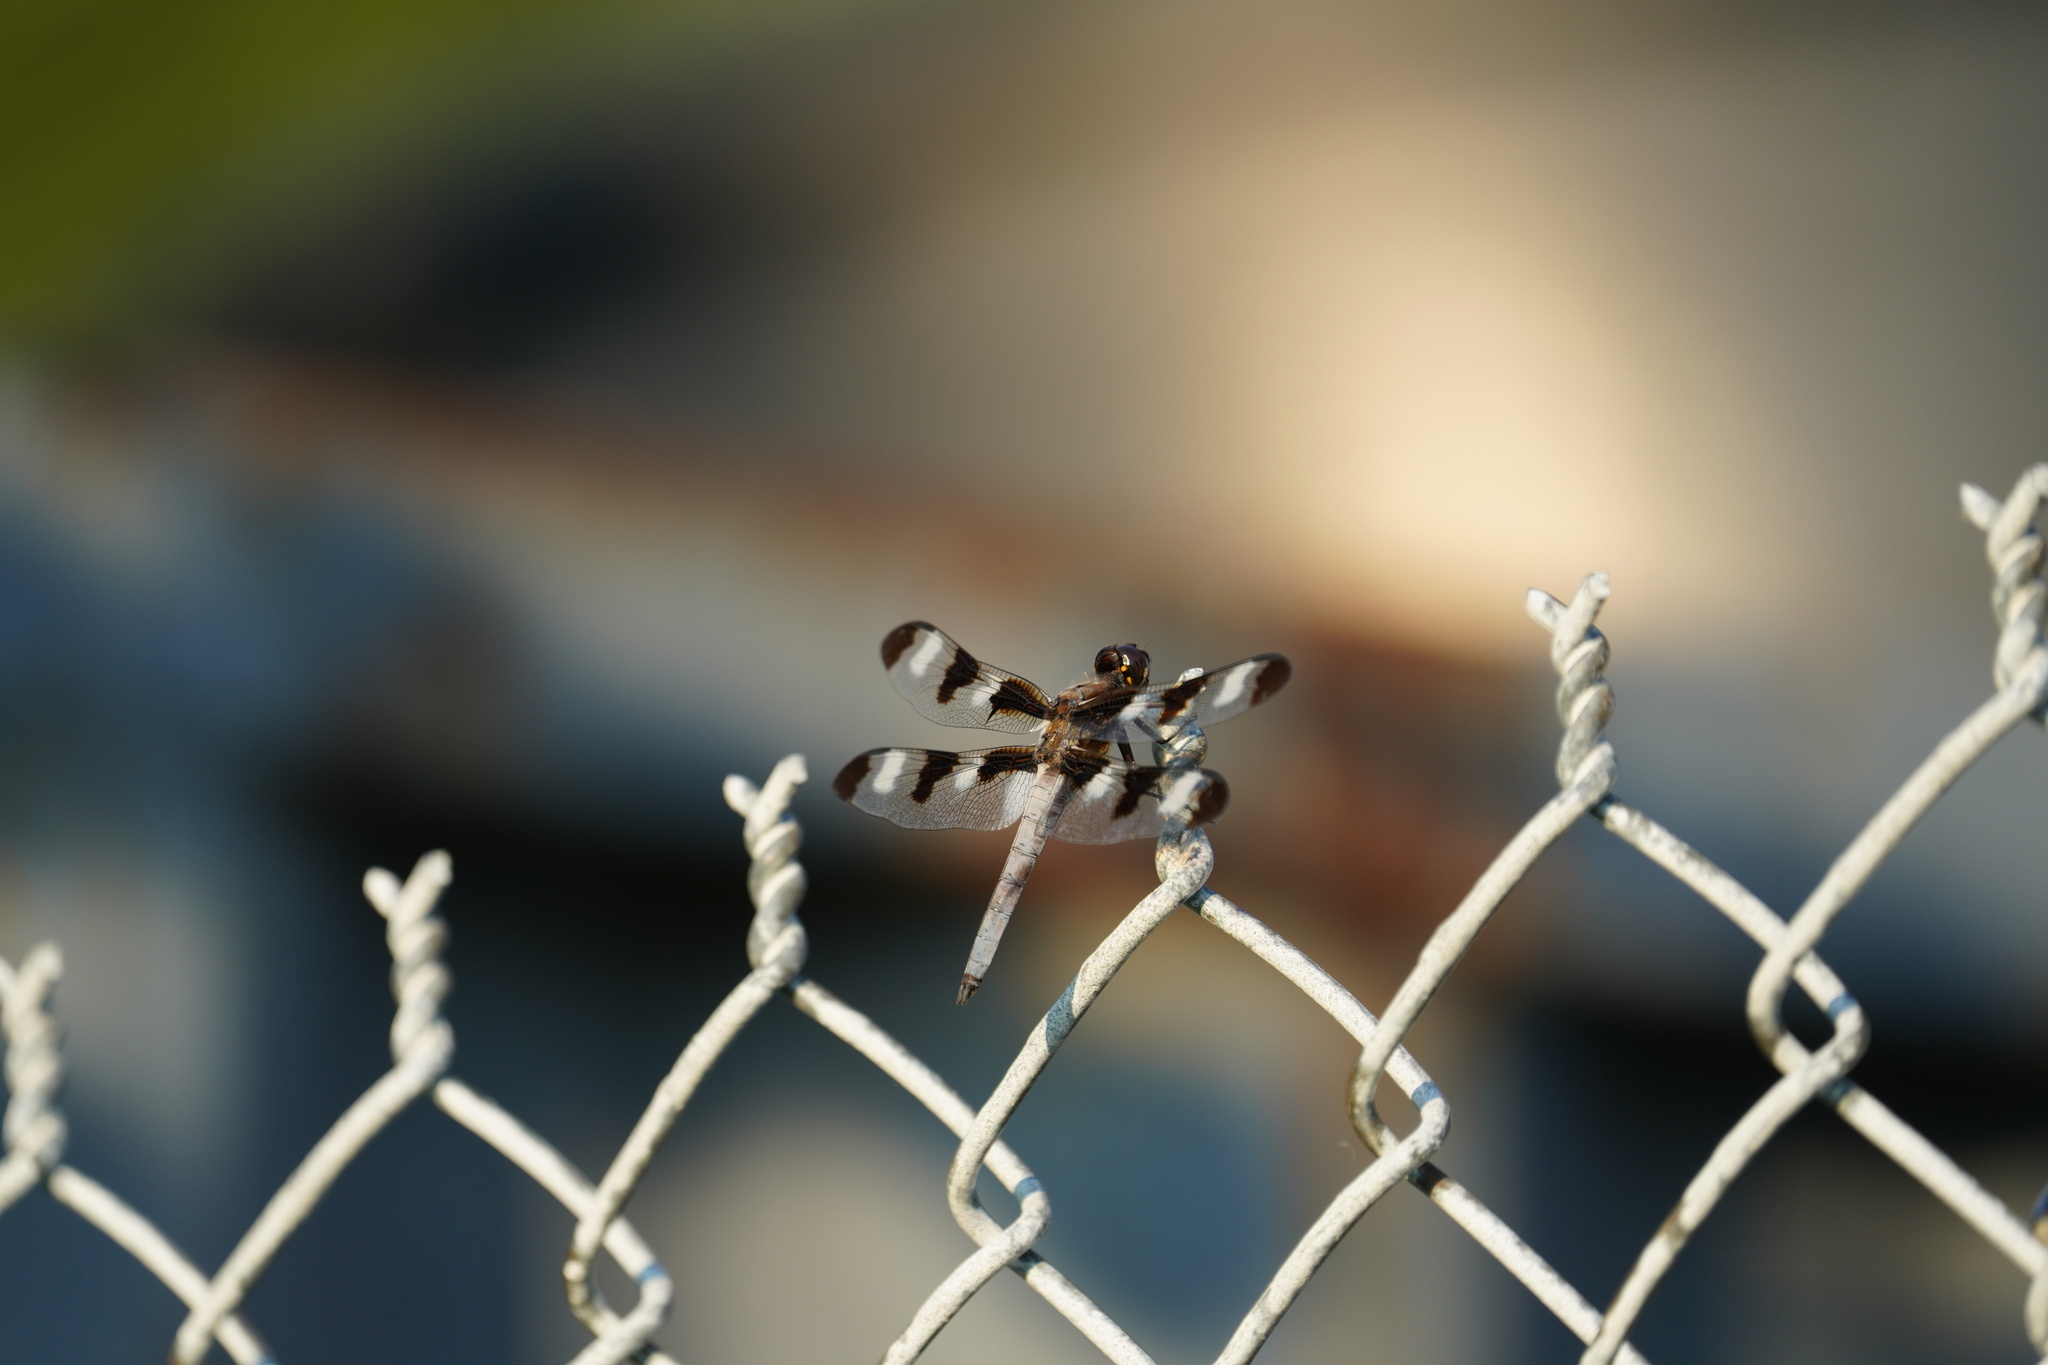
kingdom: Animalia
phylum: Arthropoda
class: Insecta
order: Odonata
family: Libellulidae
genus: Libellula
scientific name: Libellula pulchella
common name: Twelve-spotted skimmer
